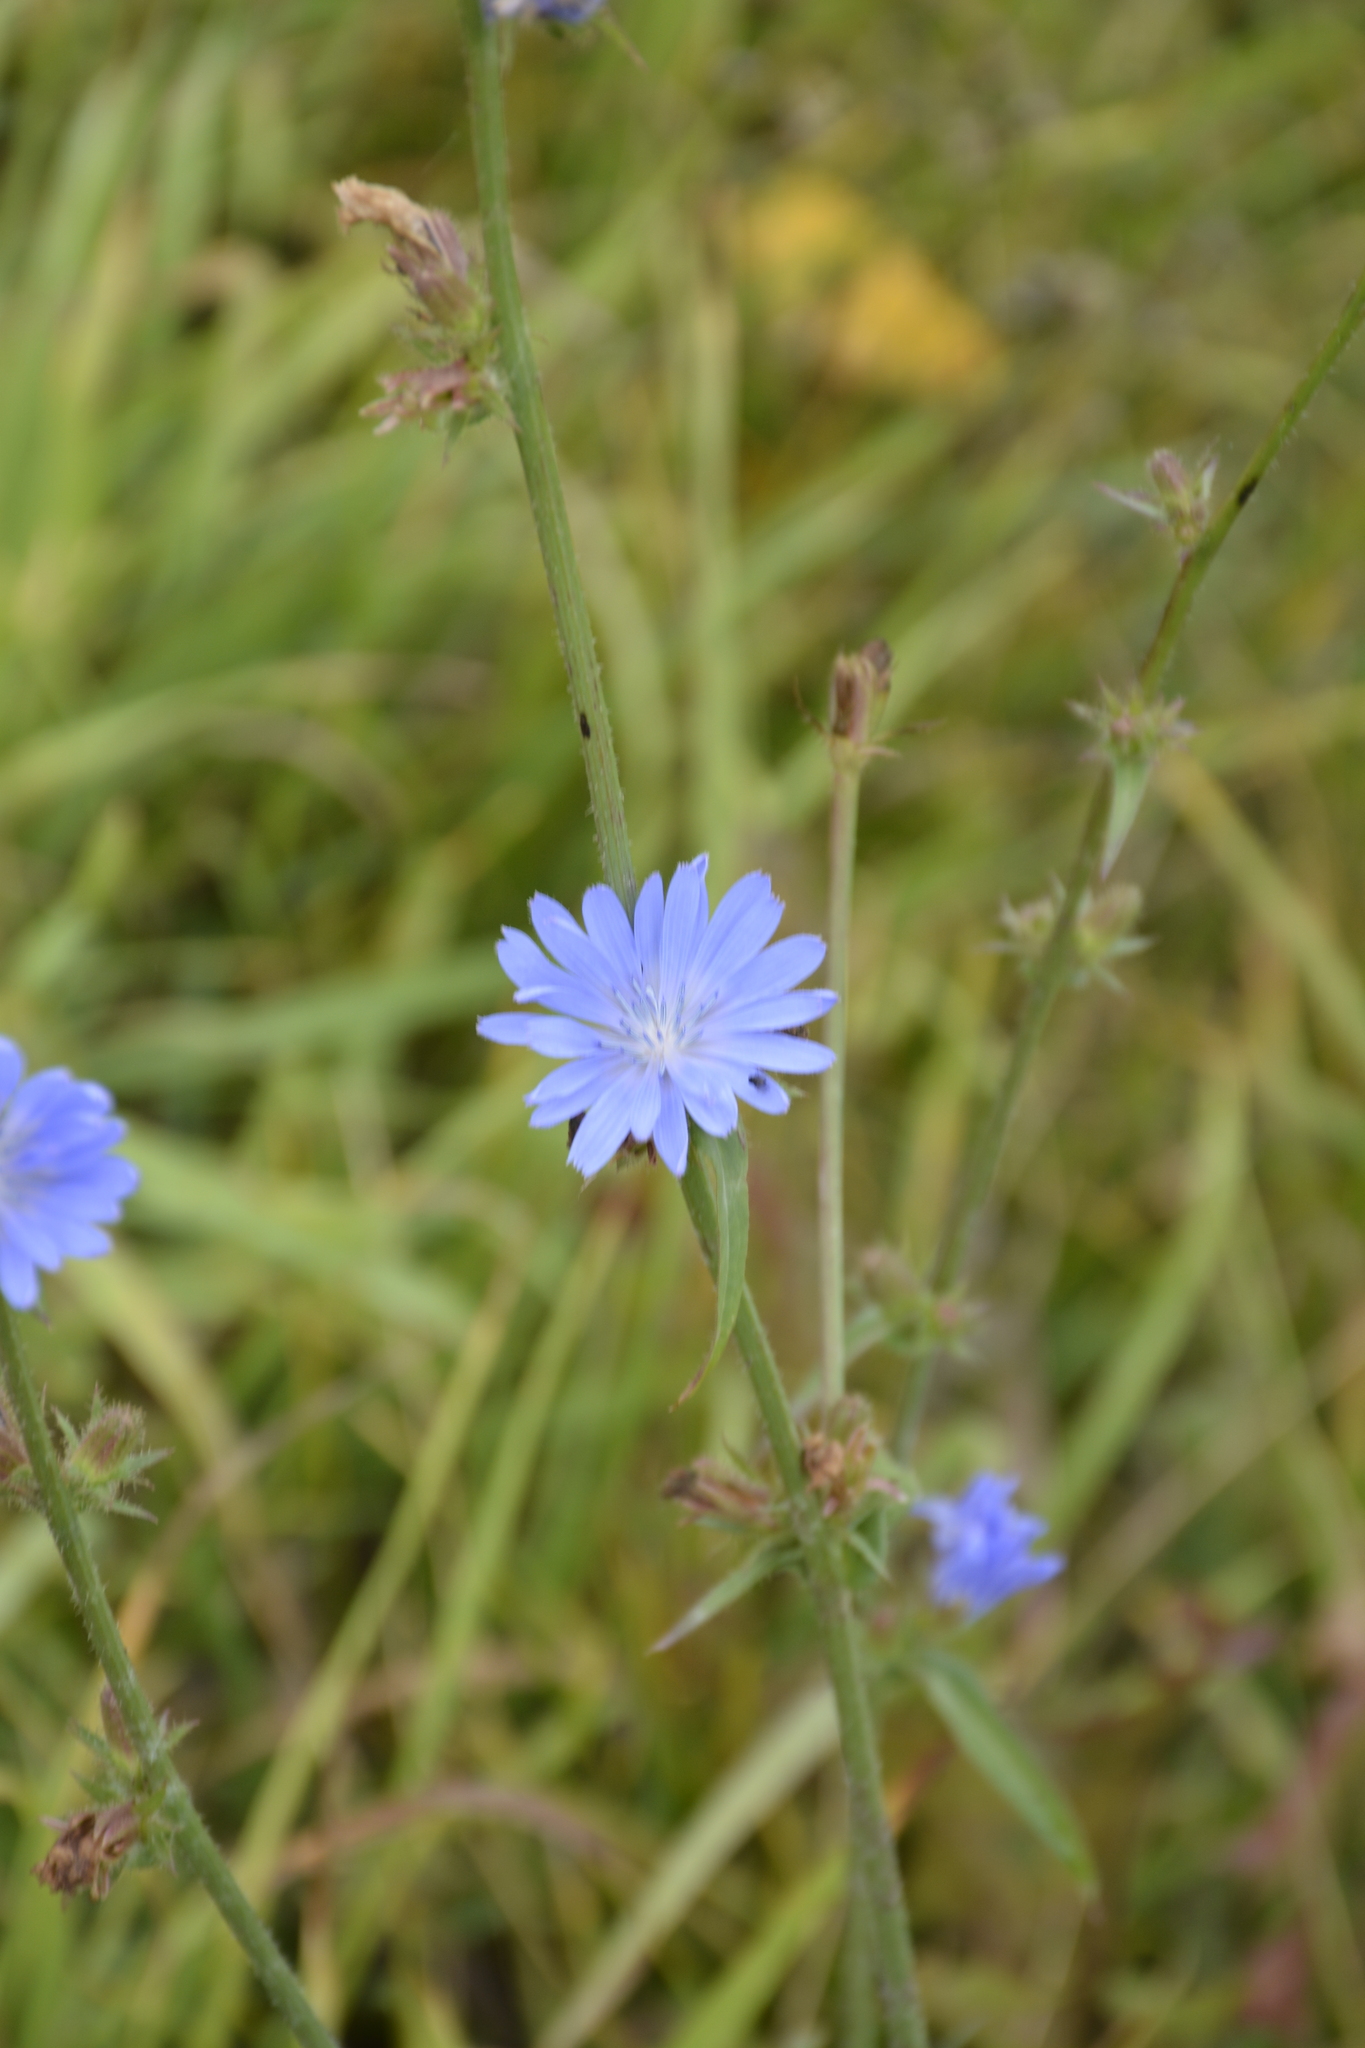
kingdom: Plantae
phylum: Tracheophyta
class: Magnoliopsida
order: Asterales
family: Asteraceae
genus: Cichorium
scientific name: Cichorium intybus
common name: Chicory
